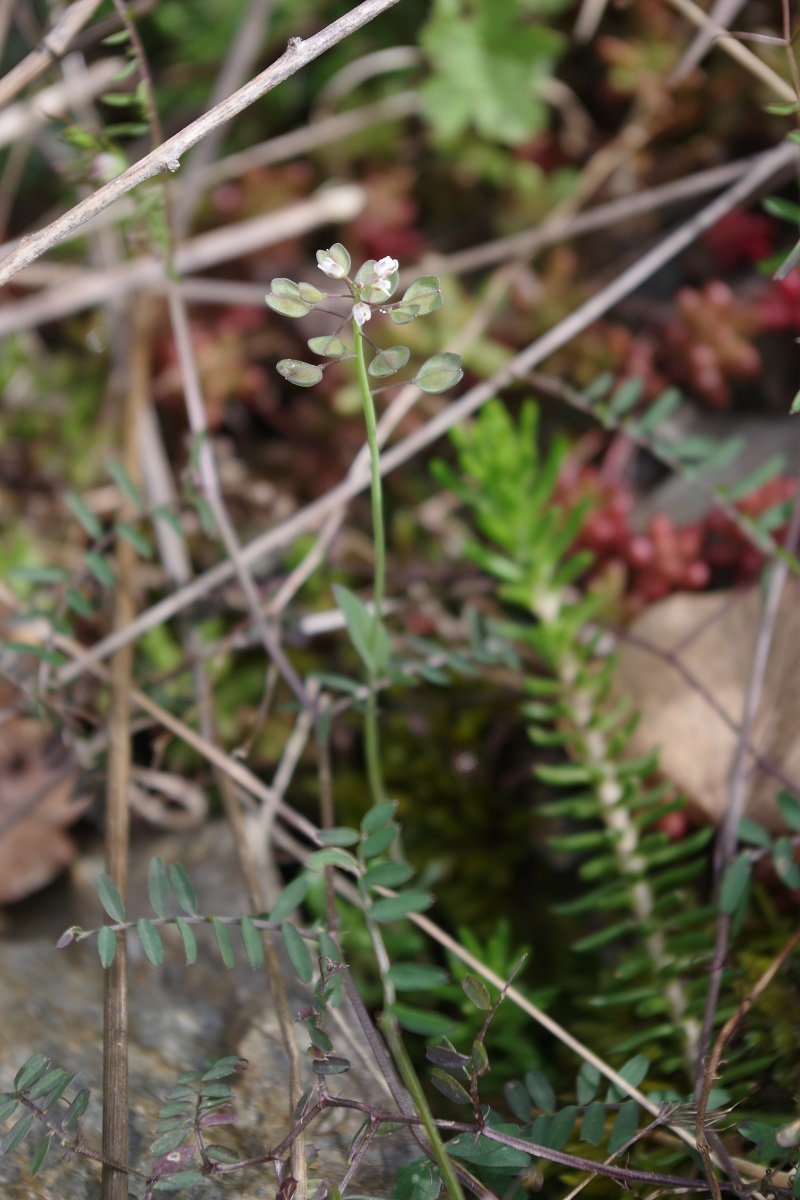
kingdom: Plantae
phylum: Tracheophyta
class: Magnoliopsida
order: Brassicales
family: Brassicaceae
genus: Noccaea
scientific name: Noccaea perfoliata
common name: Perfoliate pennycress
